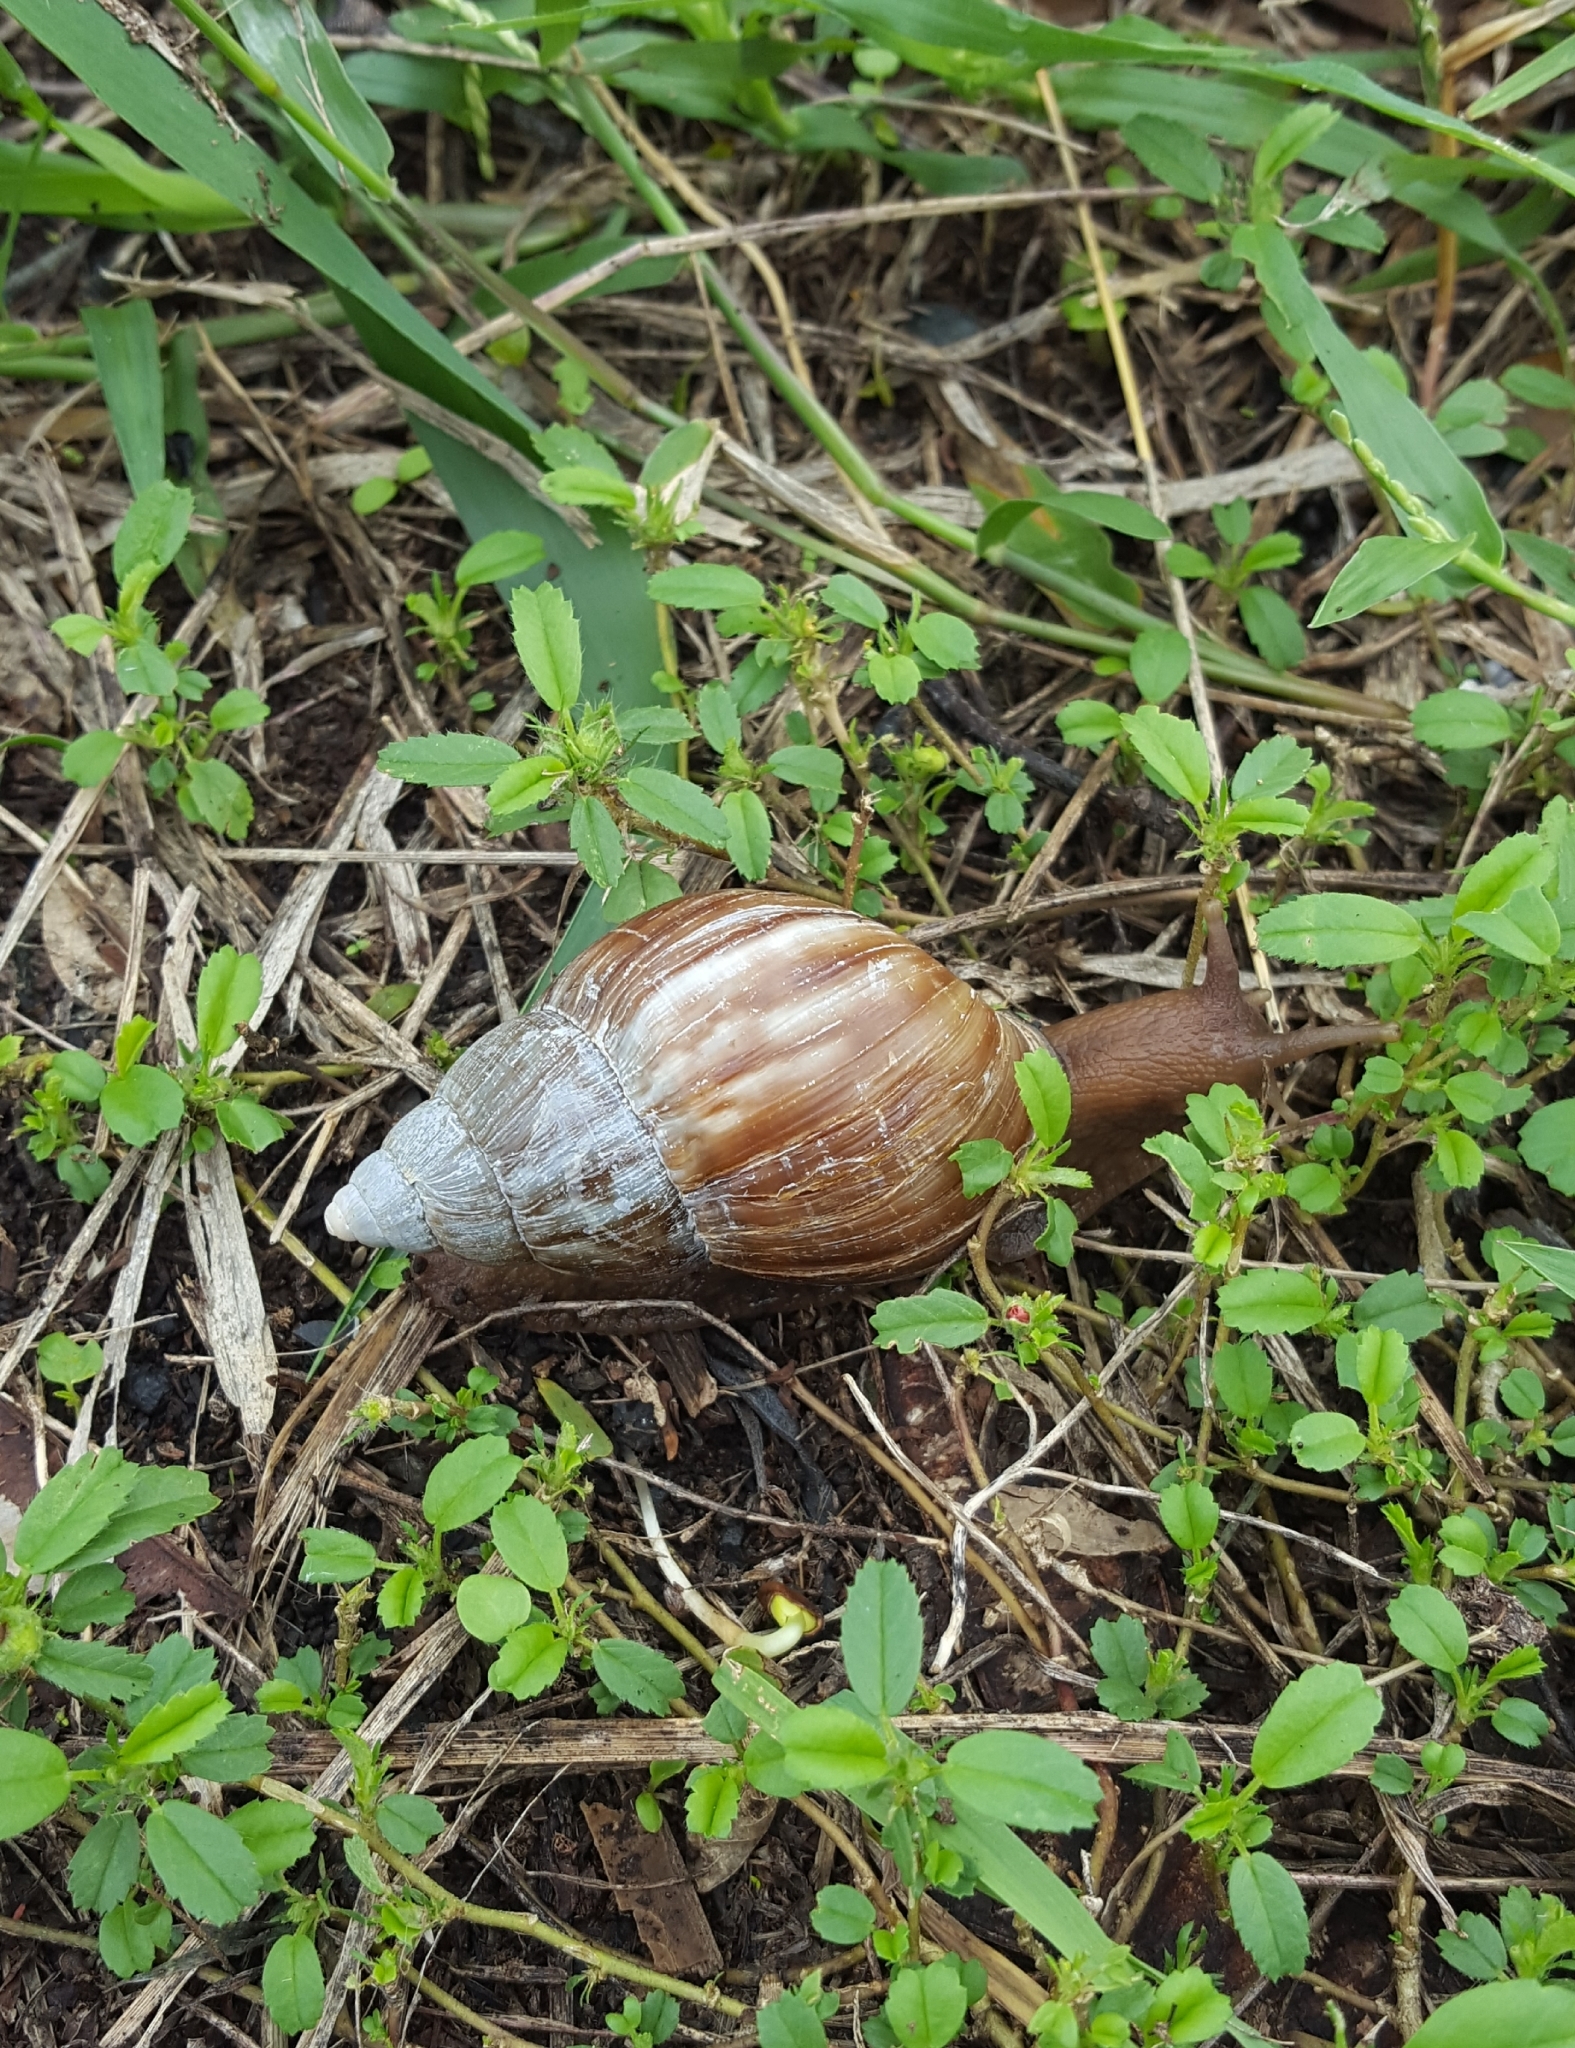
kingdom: Animalia
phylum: Mollusca
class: Gastropoda
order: Stylommatophora
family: Achatinidae
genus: Lissachatina
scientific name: Lissachatina fulica
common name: Giant african snail
